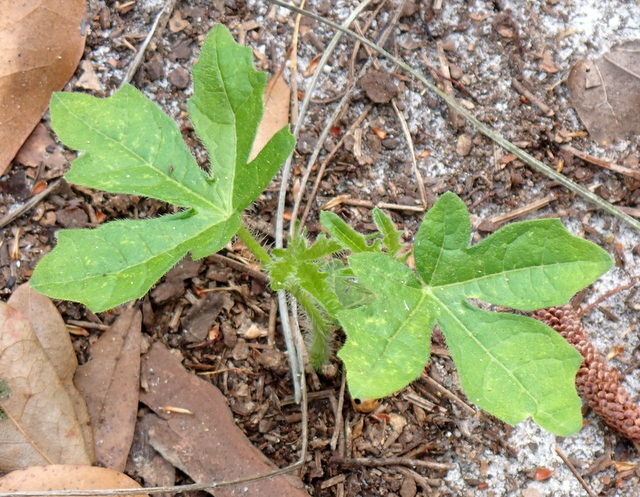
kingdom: Plantae
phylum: Tracheophyta
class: Magnoliopsida
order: Malpighiales
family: Euphorbiaceae
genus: Cnidoscolus
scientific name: Cnidoscolus stimulosus
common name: Bull-nettle
